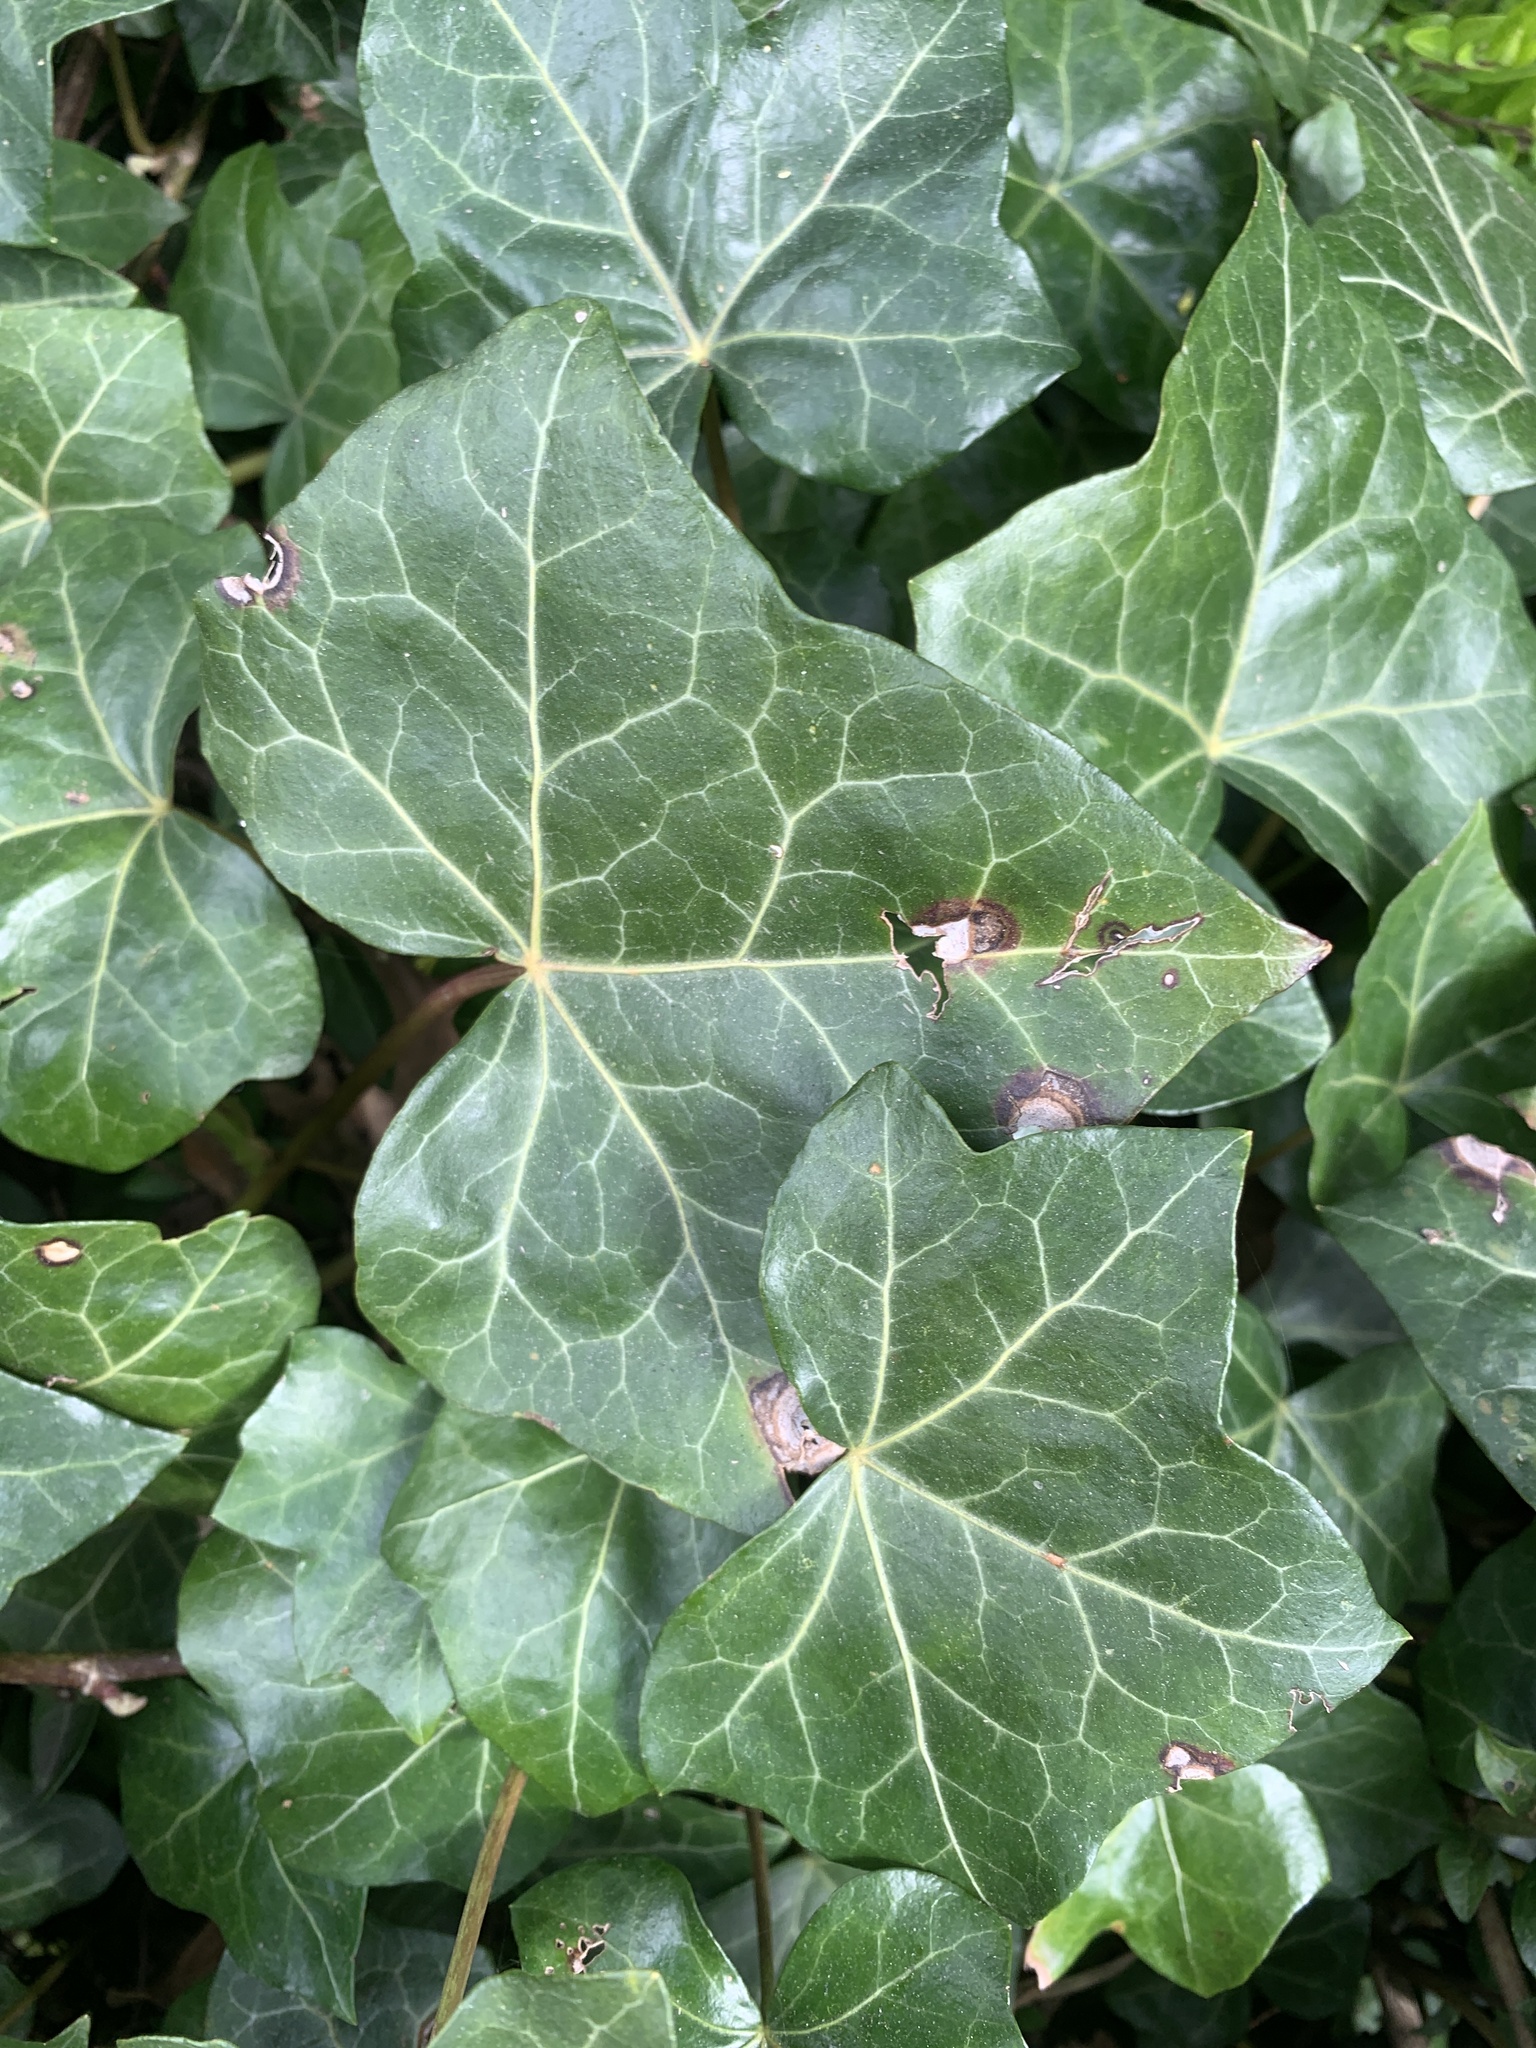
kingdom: Plantae
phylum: Tracheophyta
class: Magnoliopsida
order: Apiales
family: Araliaceae
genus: Hedera
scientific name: Hedera helix
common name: Ivy
